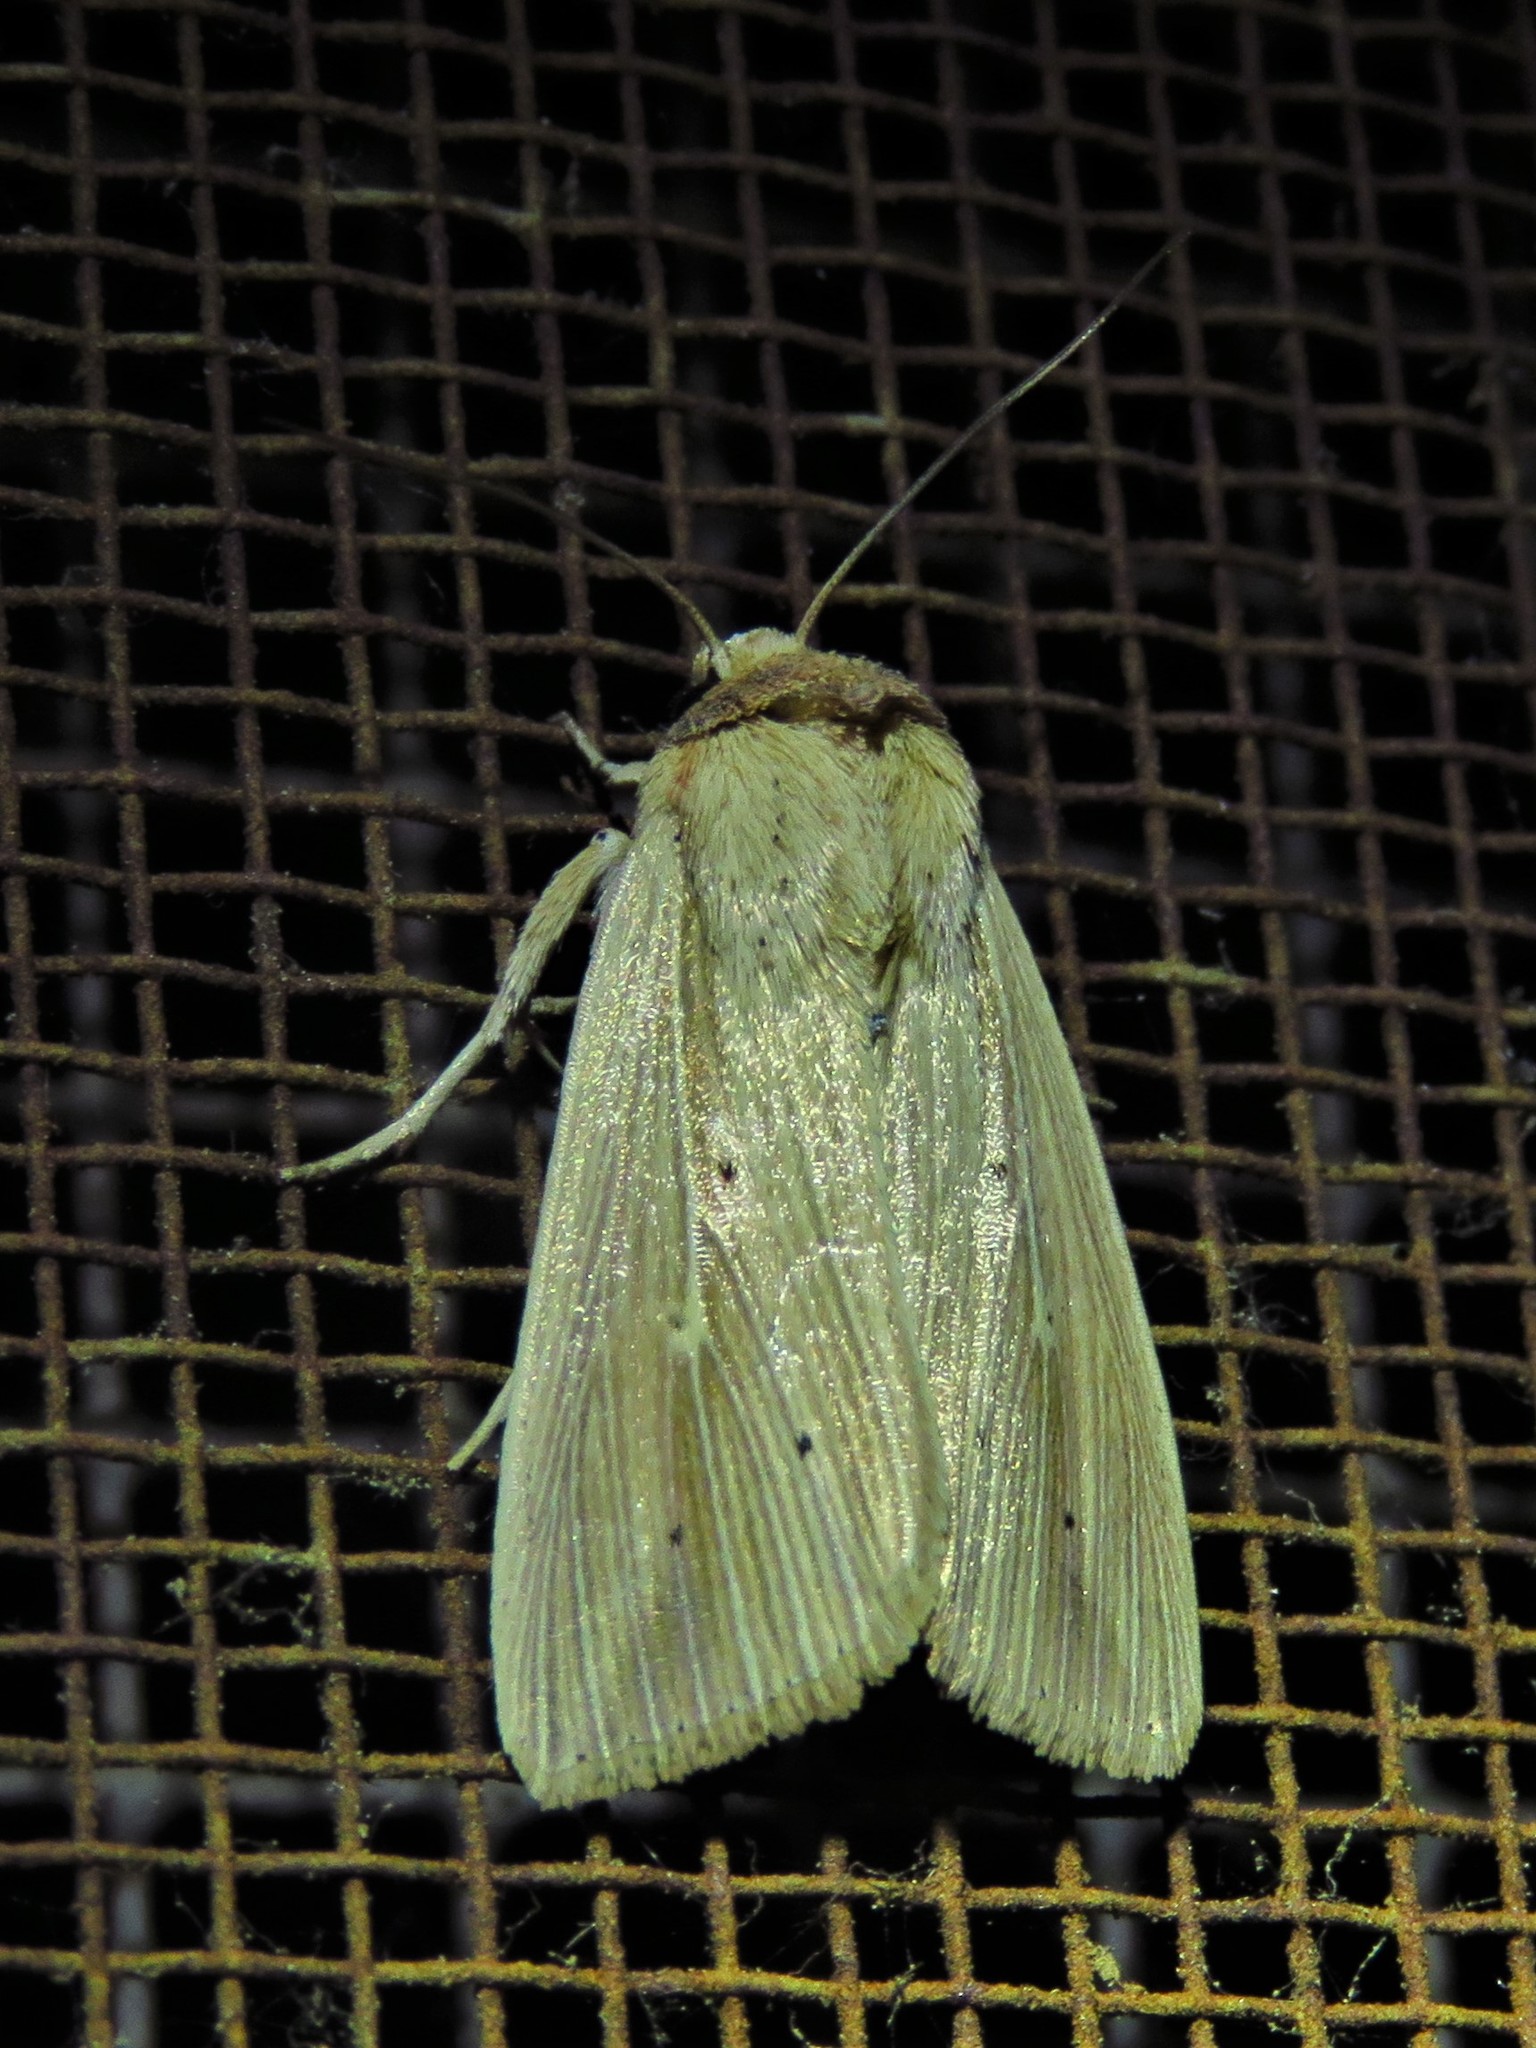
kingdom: Animalia
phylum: Arthropoda
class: Insecta
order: Lepidoptera
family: Noctuidae
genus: Leucania
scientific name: Leucania adjuta
